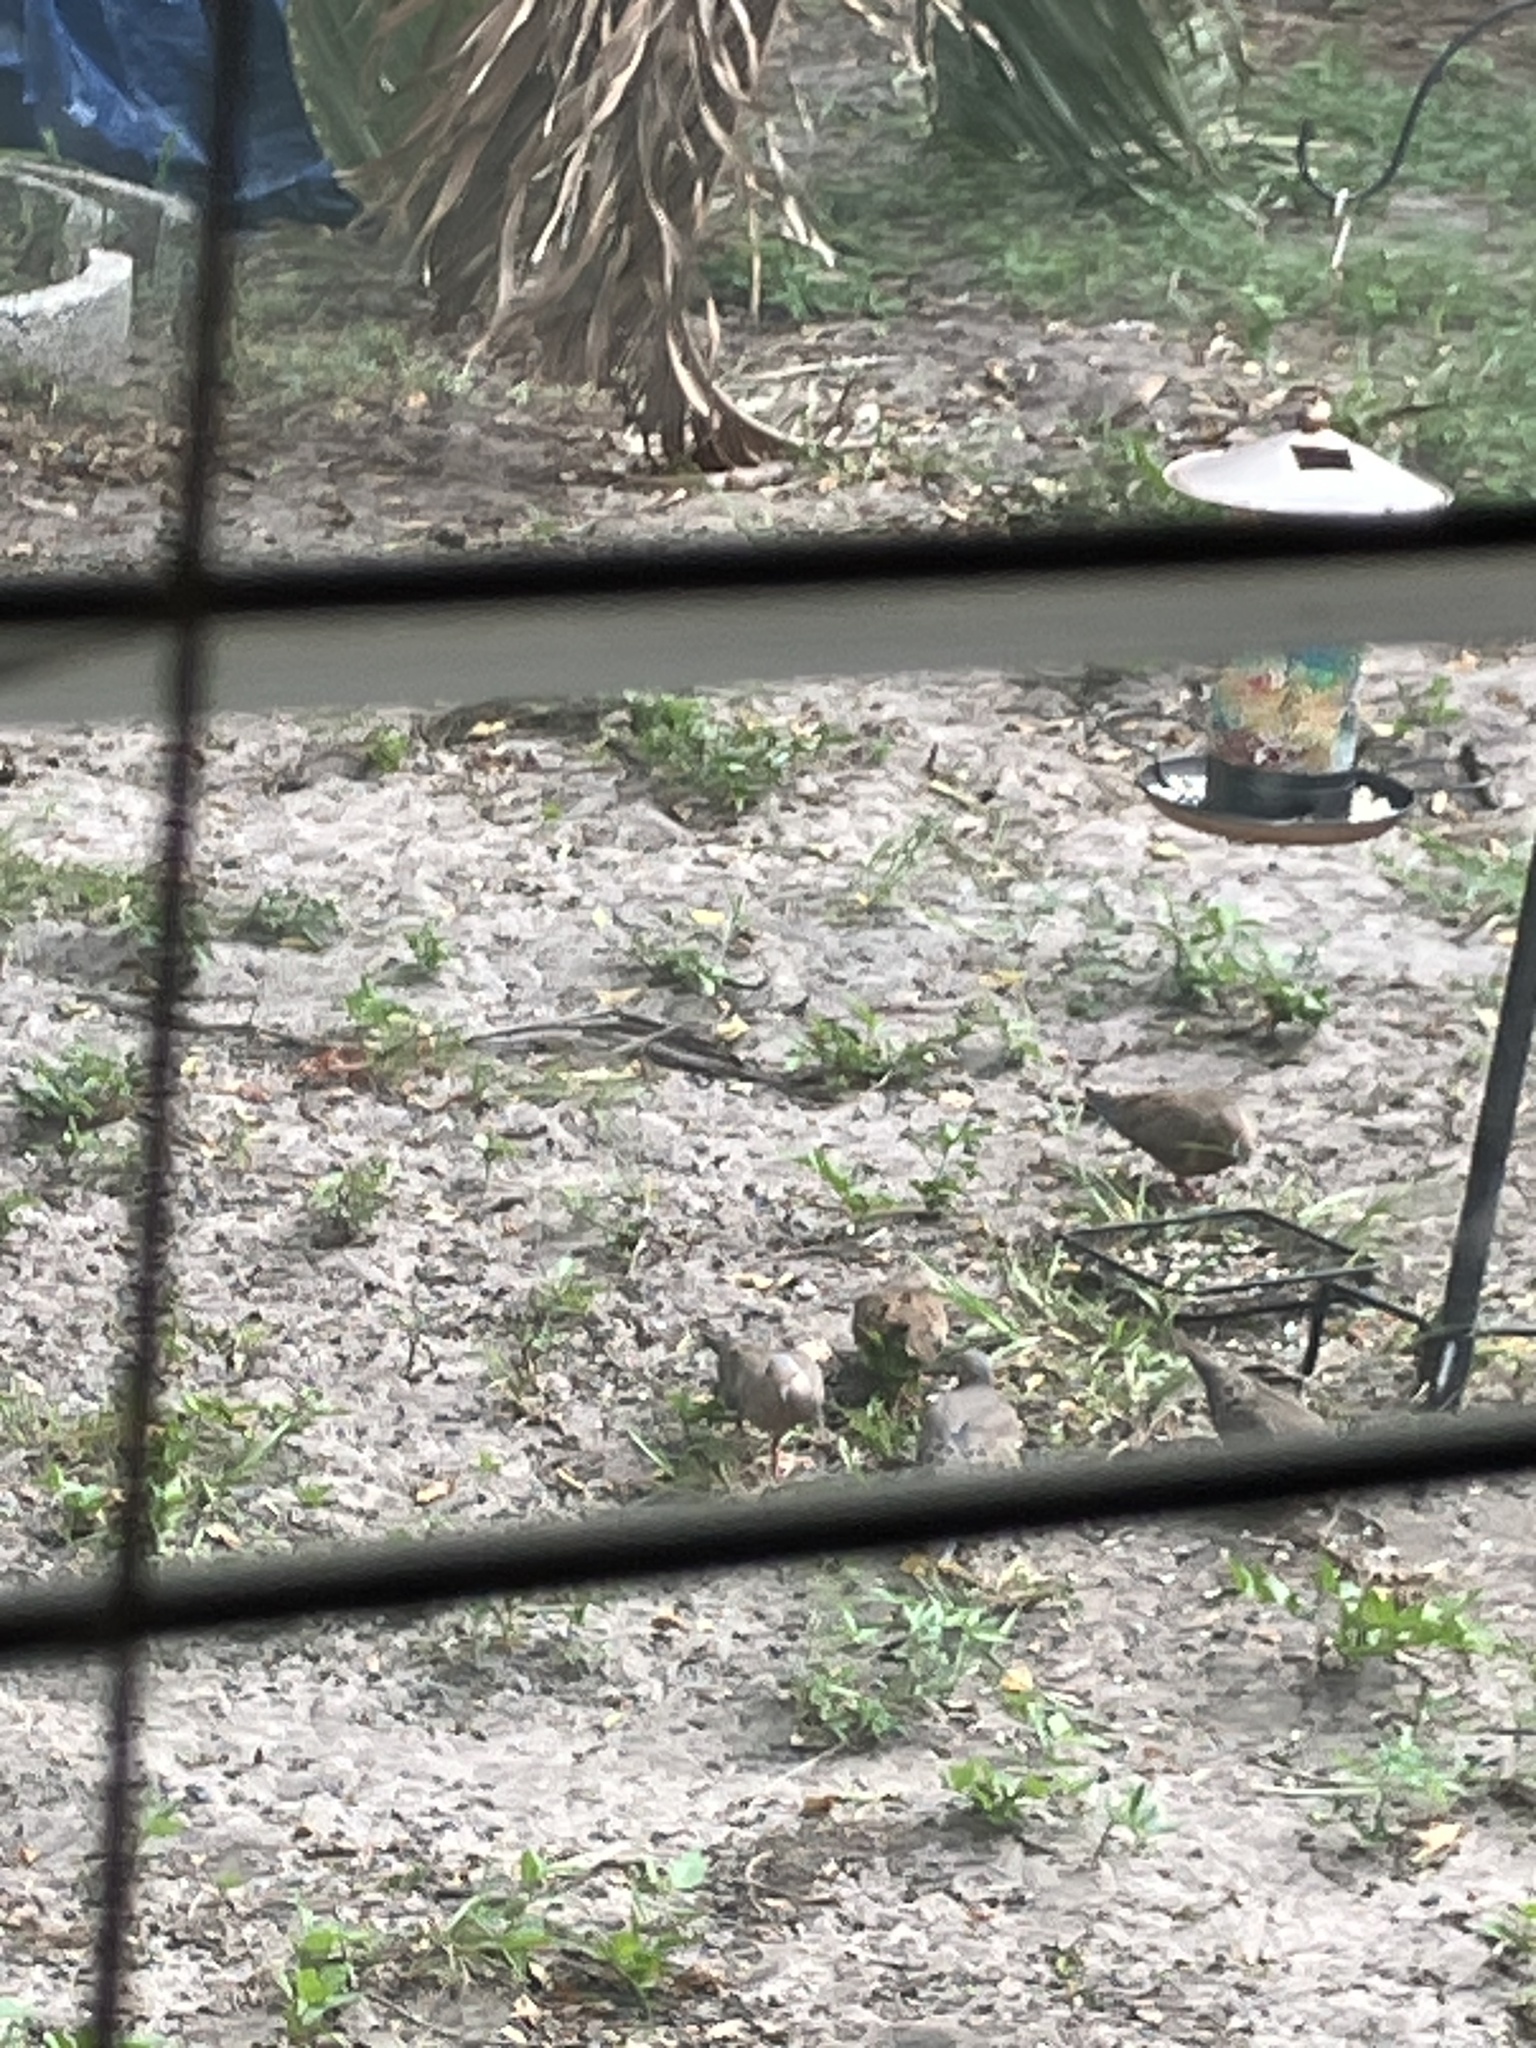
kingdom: Animalia
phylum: Chordata
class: Aves
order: Columbiformes
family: Columbidae
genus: Zenaida
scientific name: Zenaida macroura
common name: Mourning dove
